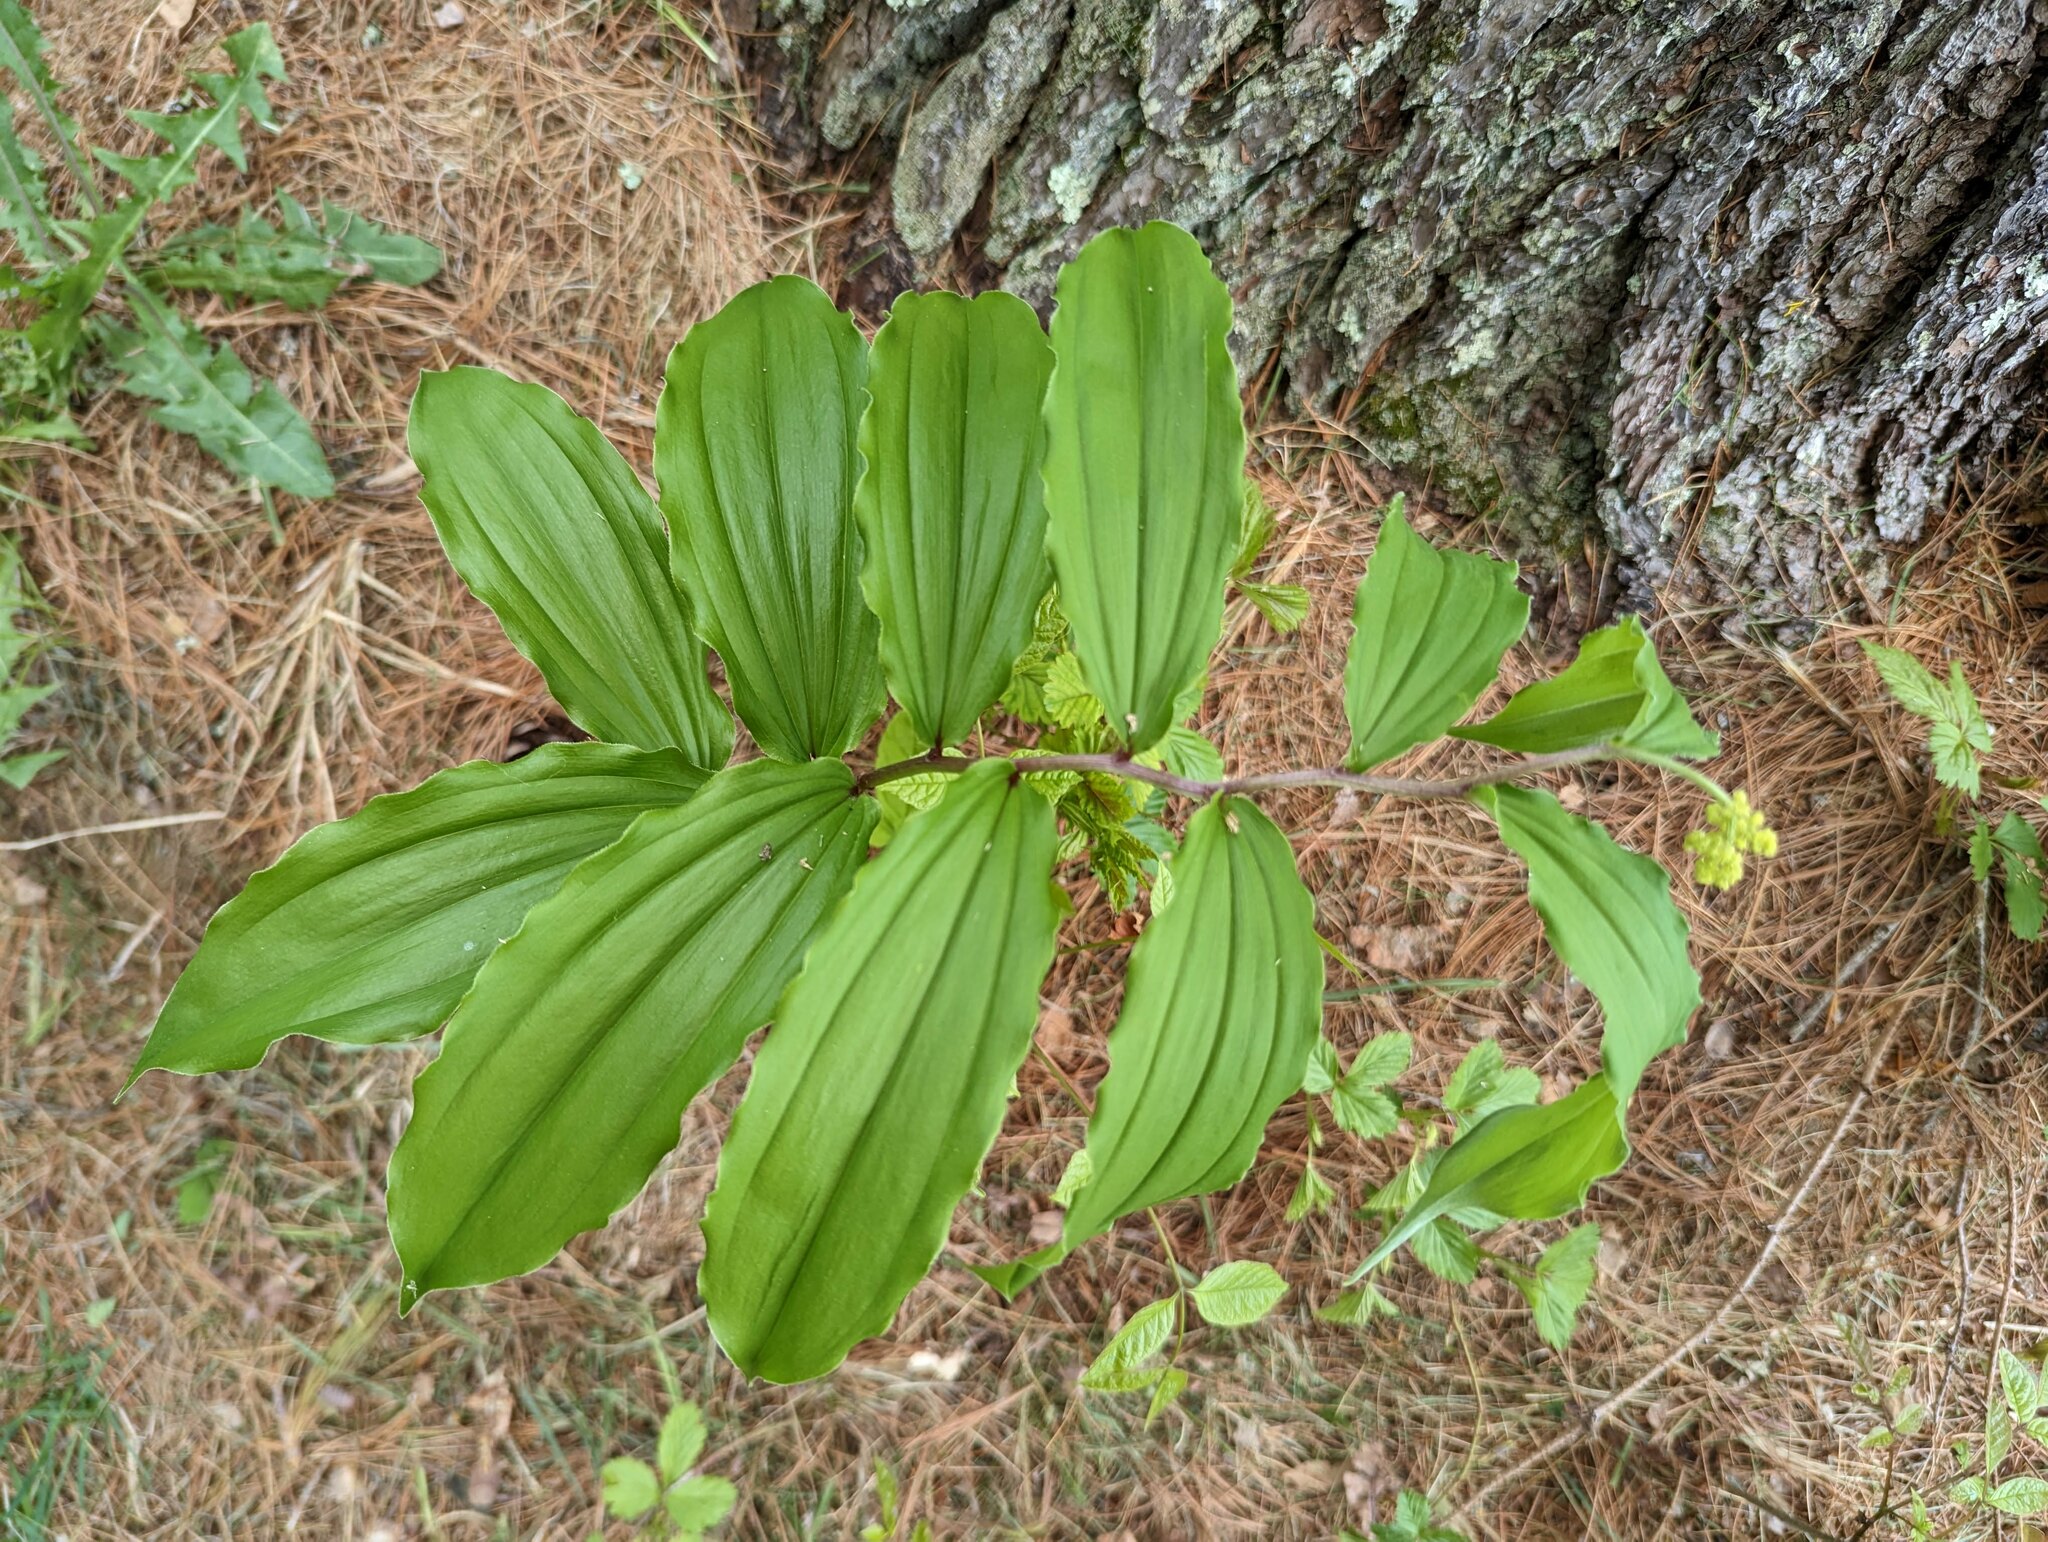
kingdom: Plantae
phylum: Tracheophyta
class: Liliopsida
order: Asparagales
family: Asparagaceae
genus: Maianthemum
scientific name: Maianthemum racemosum
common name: False spikenard
